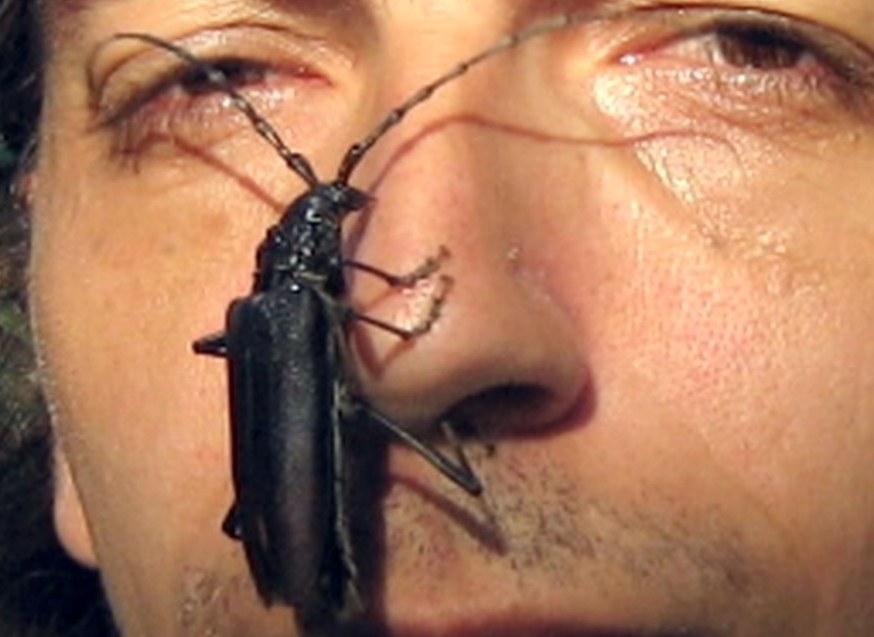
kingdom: Animalia
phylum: Arthropoda
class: Insecta
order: Coleoptera
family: Cerambycidae
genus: Cerambyx
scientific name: Cerambyx cerdo
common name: Cerambyx longicorn
